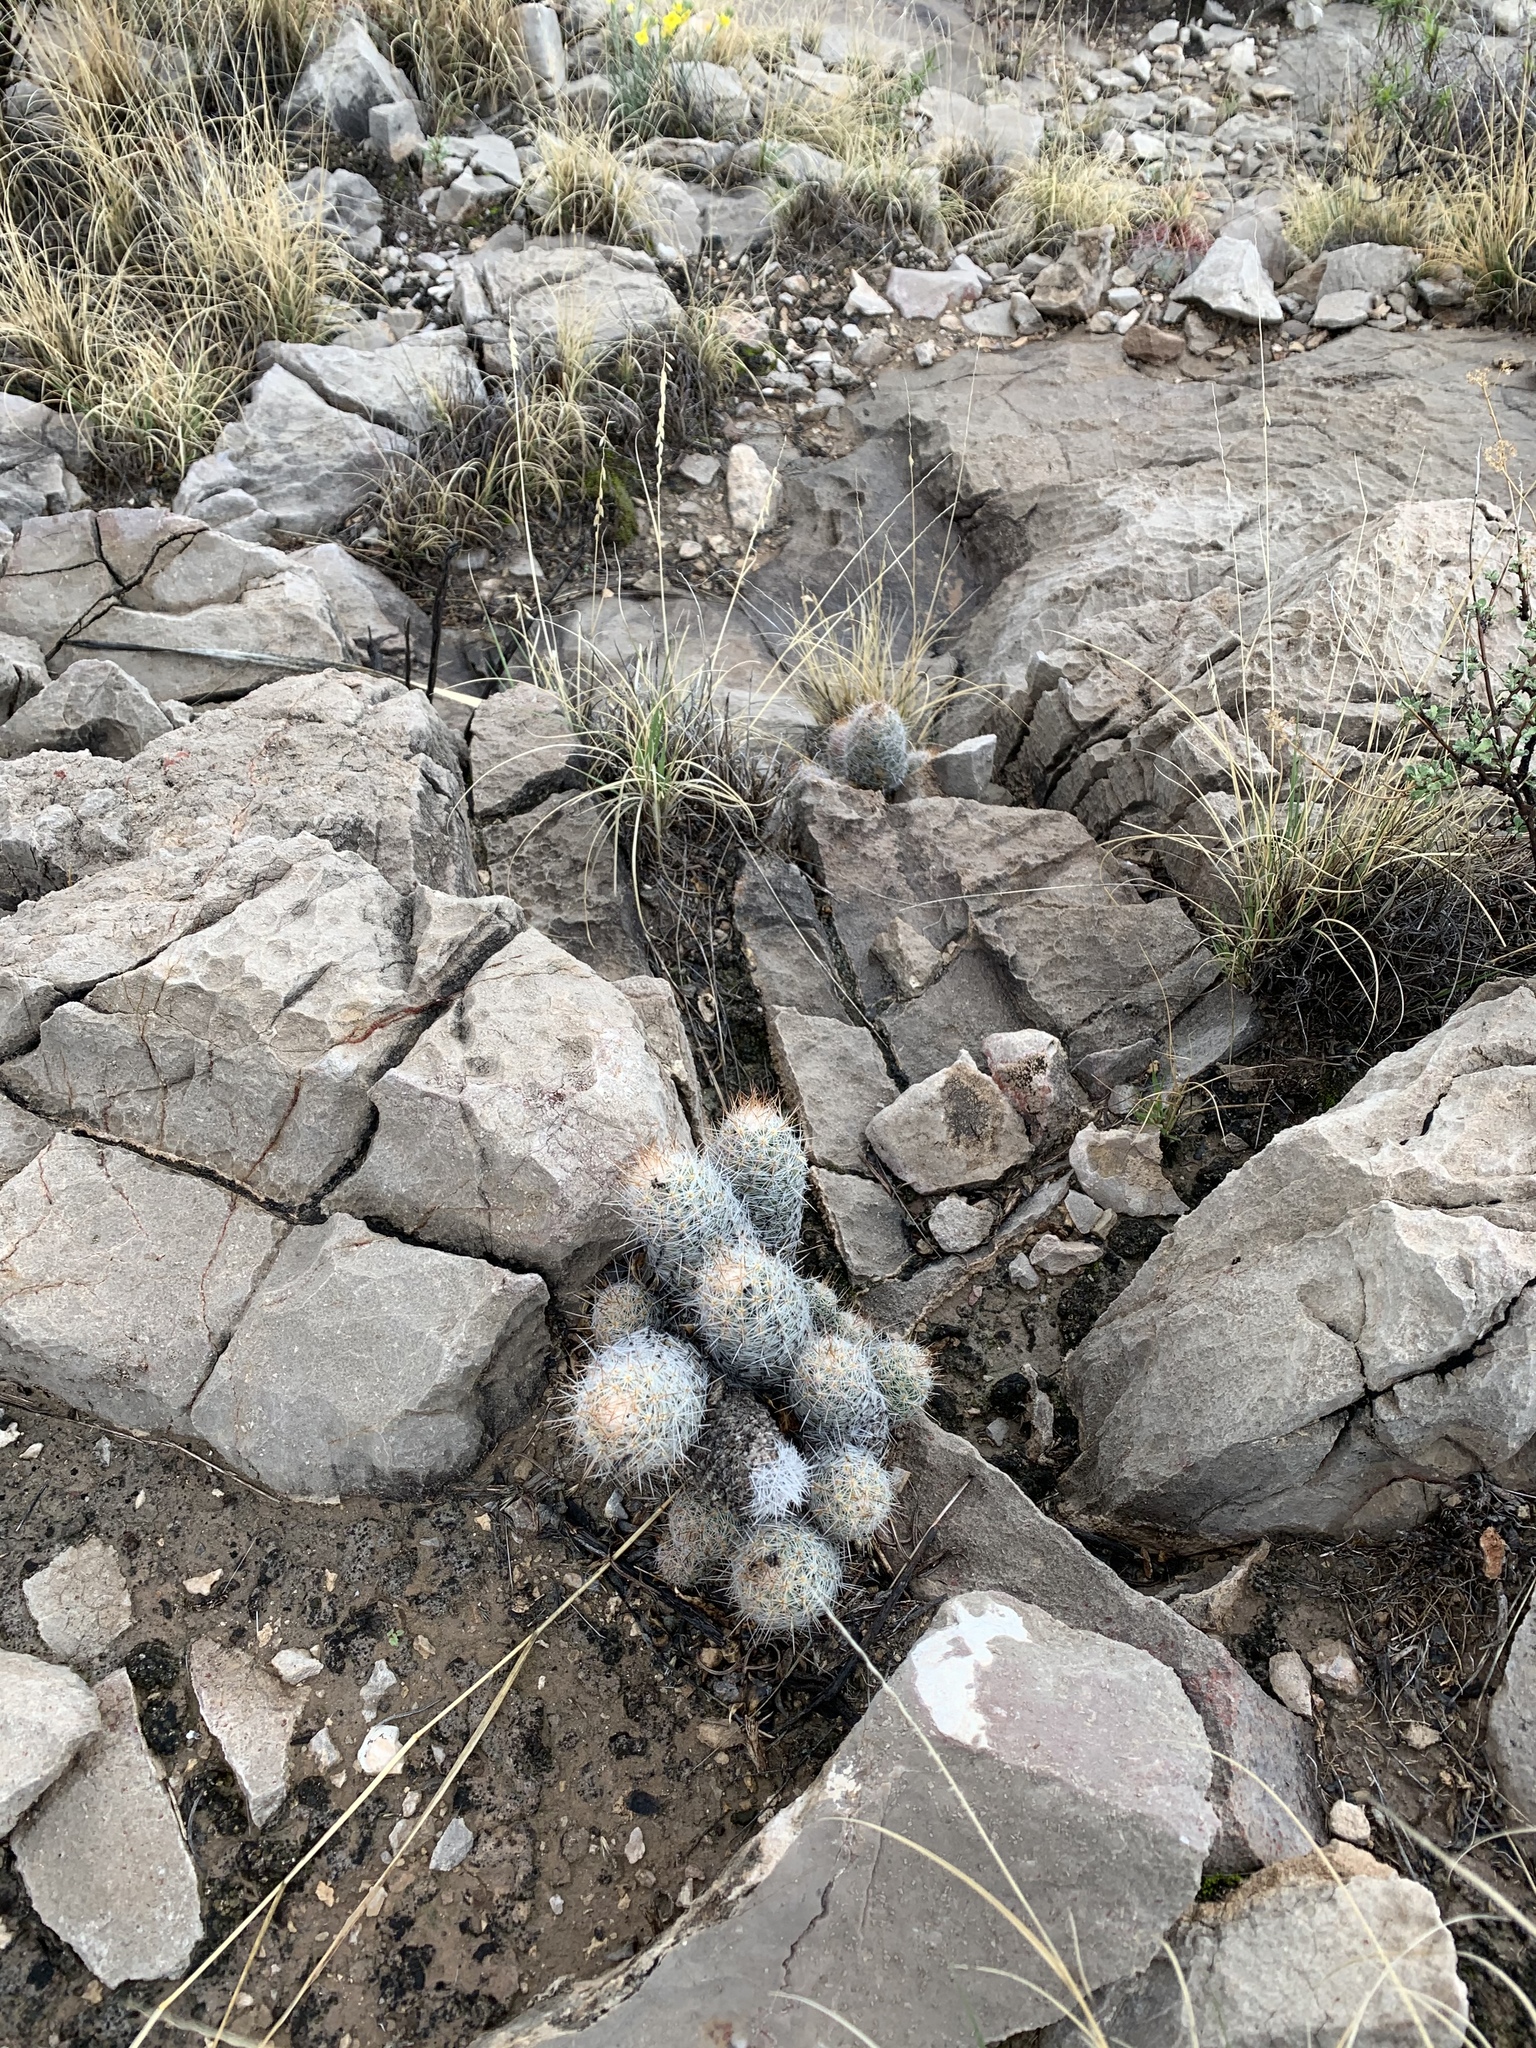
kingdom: Plantae
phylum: Tracheophyta
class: Magnoliopsida
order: Caryophyllales
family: Cactaceae
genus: Pelecyphora
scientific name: Pelecyphora tuberculosa
